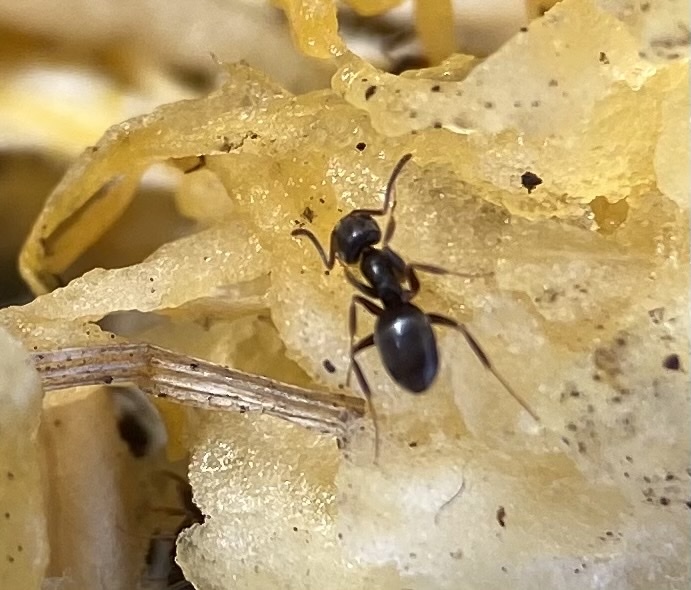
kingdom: Animalia
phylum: Arthropoda
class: Insecta
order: Hymenoptera
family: Formicidae
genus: Tapinoma
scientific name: Tapinoma sessile
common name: Odorous house ant
